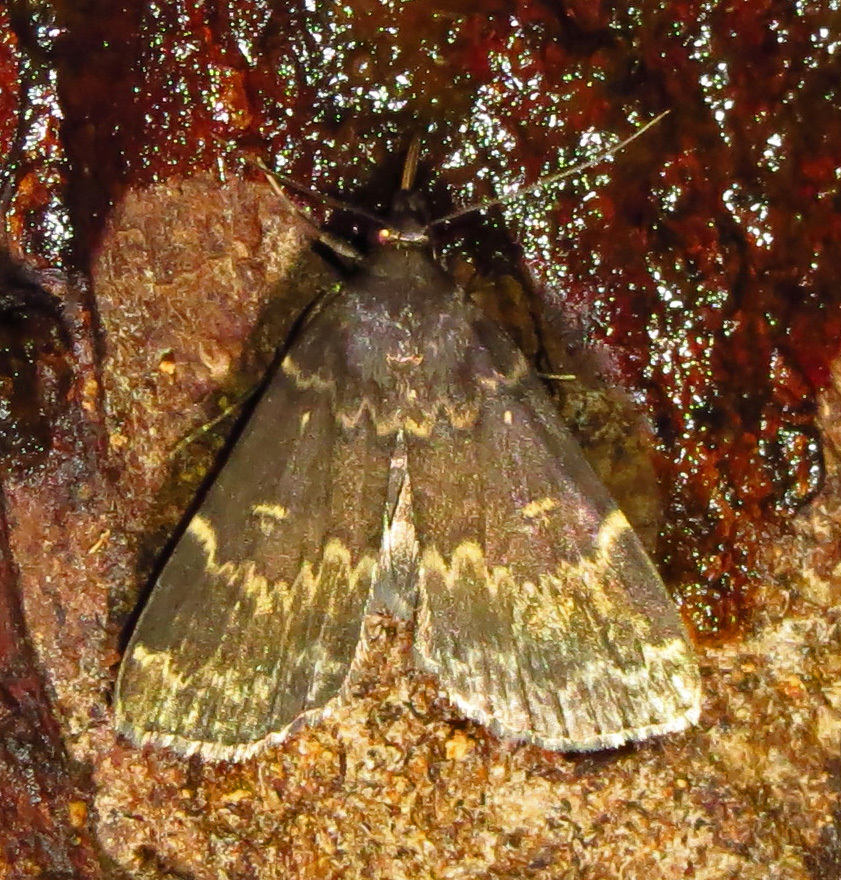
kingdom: Animalia
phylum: Arthropoda
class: Insecta
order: Lepidoptera
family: Erebidae
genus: Idia
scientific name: Idia lubricalis
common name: Twin-striped tabby
